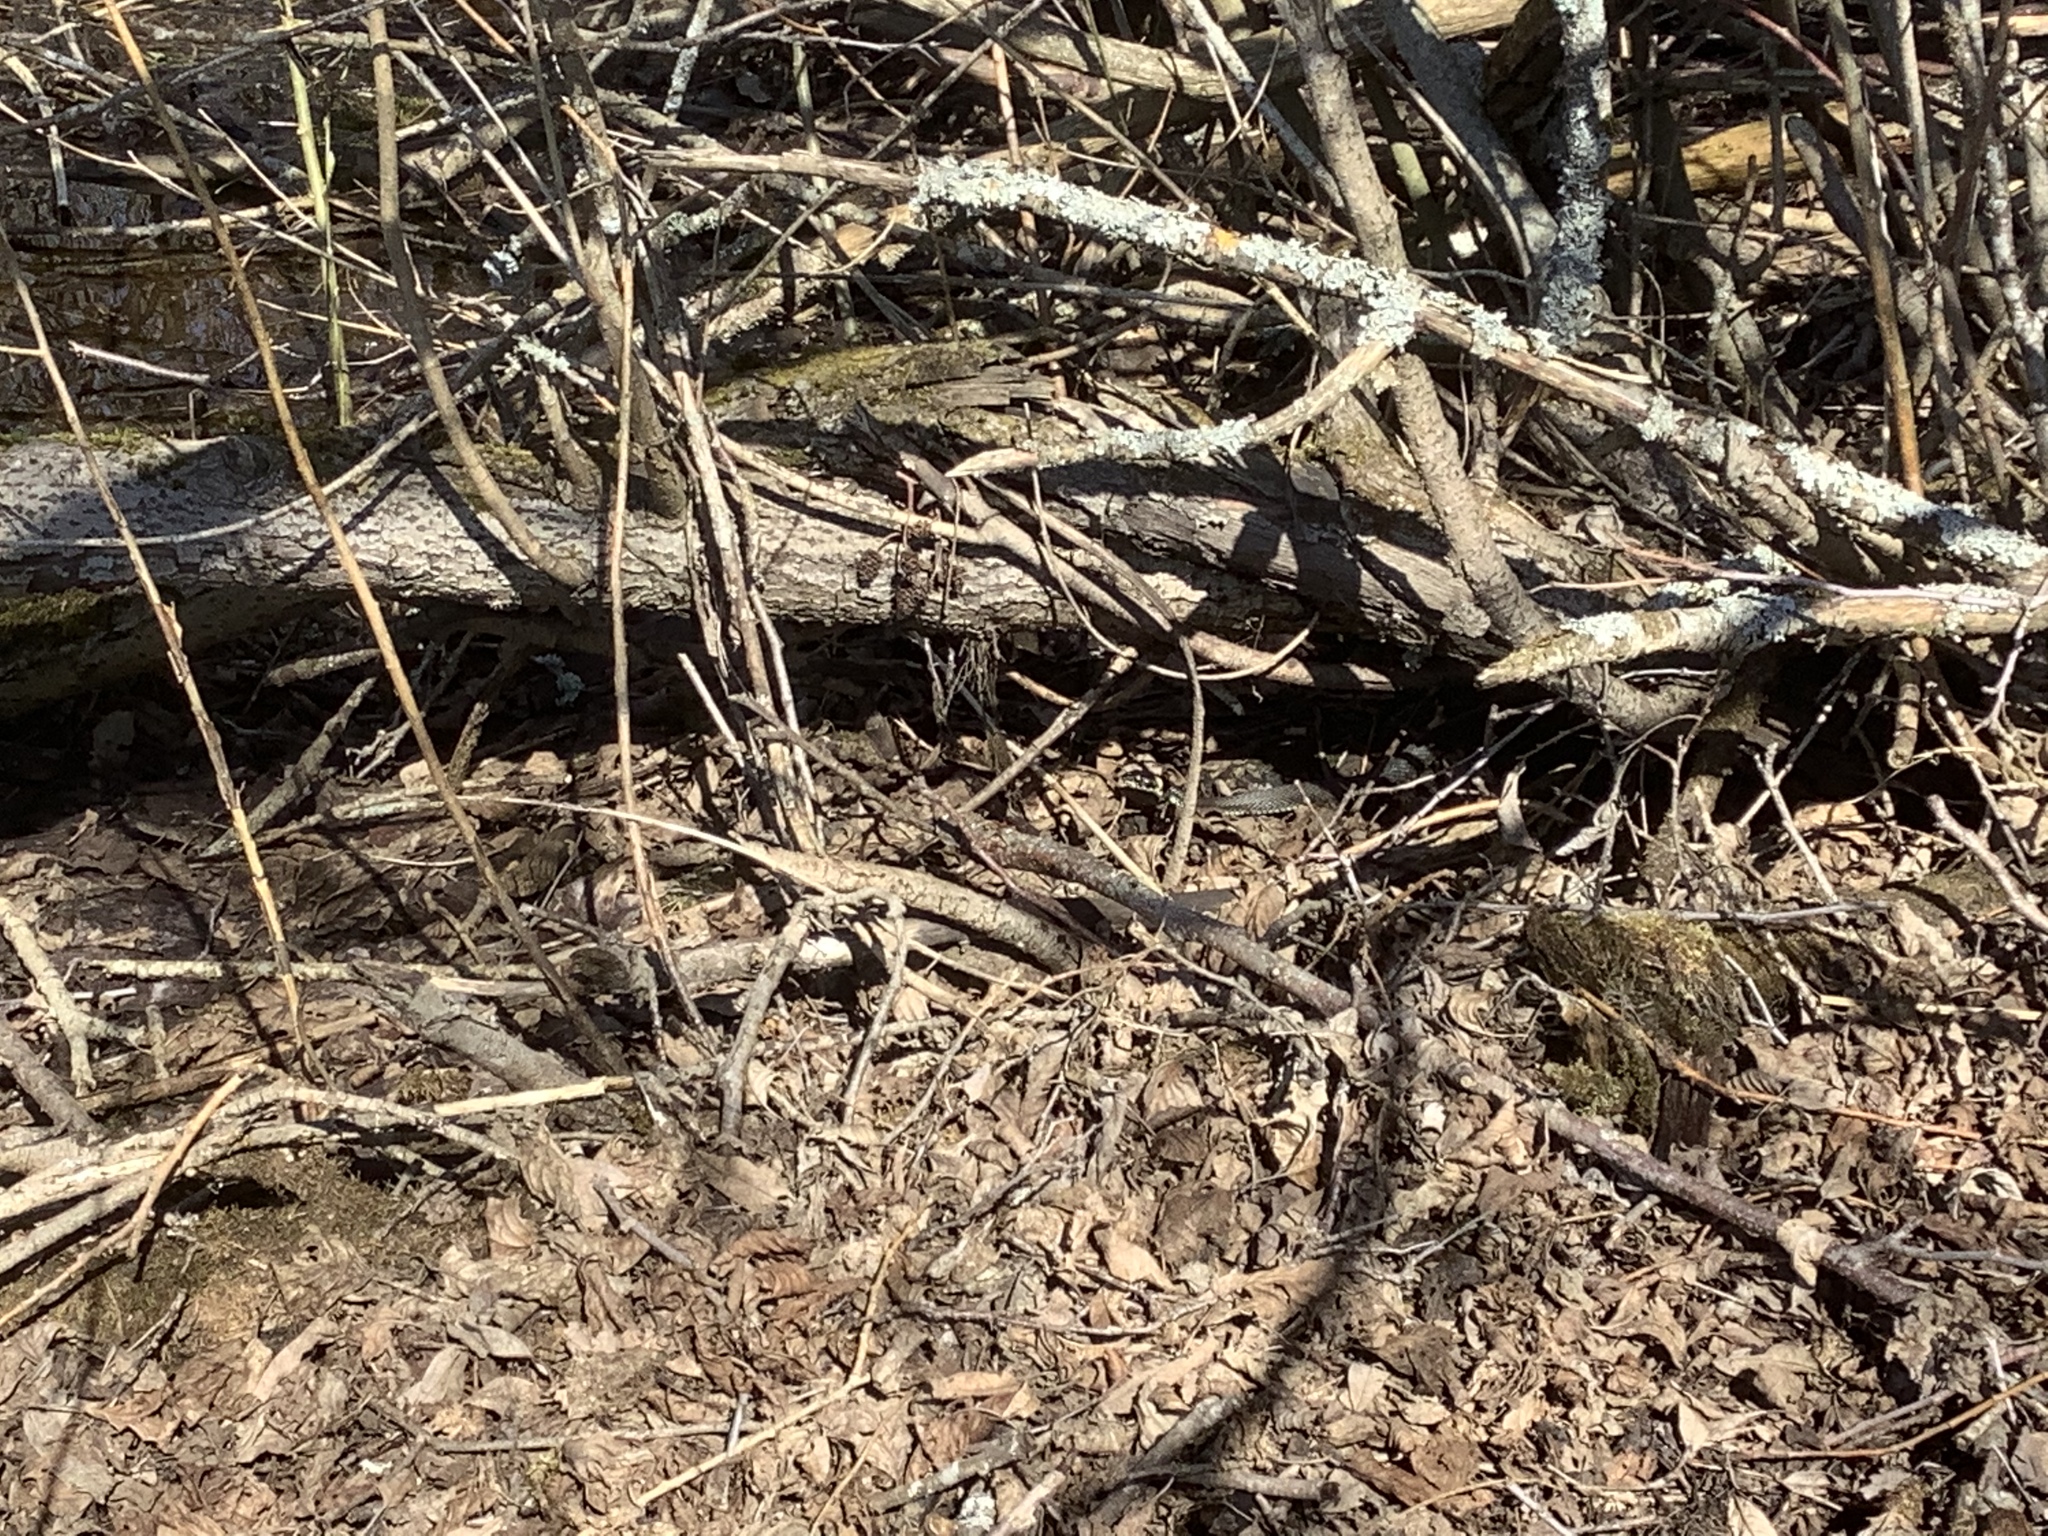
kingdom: Animalia
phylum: Chordata
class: Squamata
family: Colubridae
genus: Natrix
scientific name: Natrix natrix
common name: Grass snake
